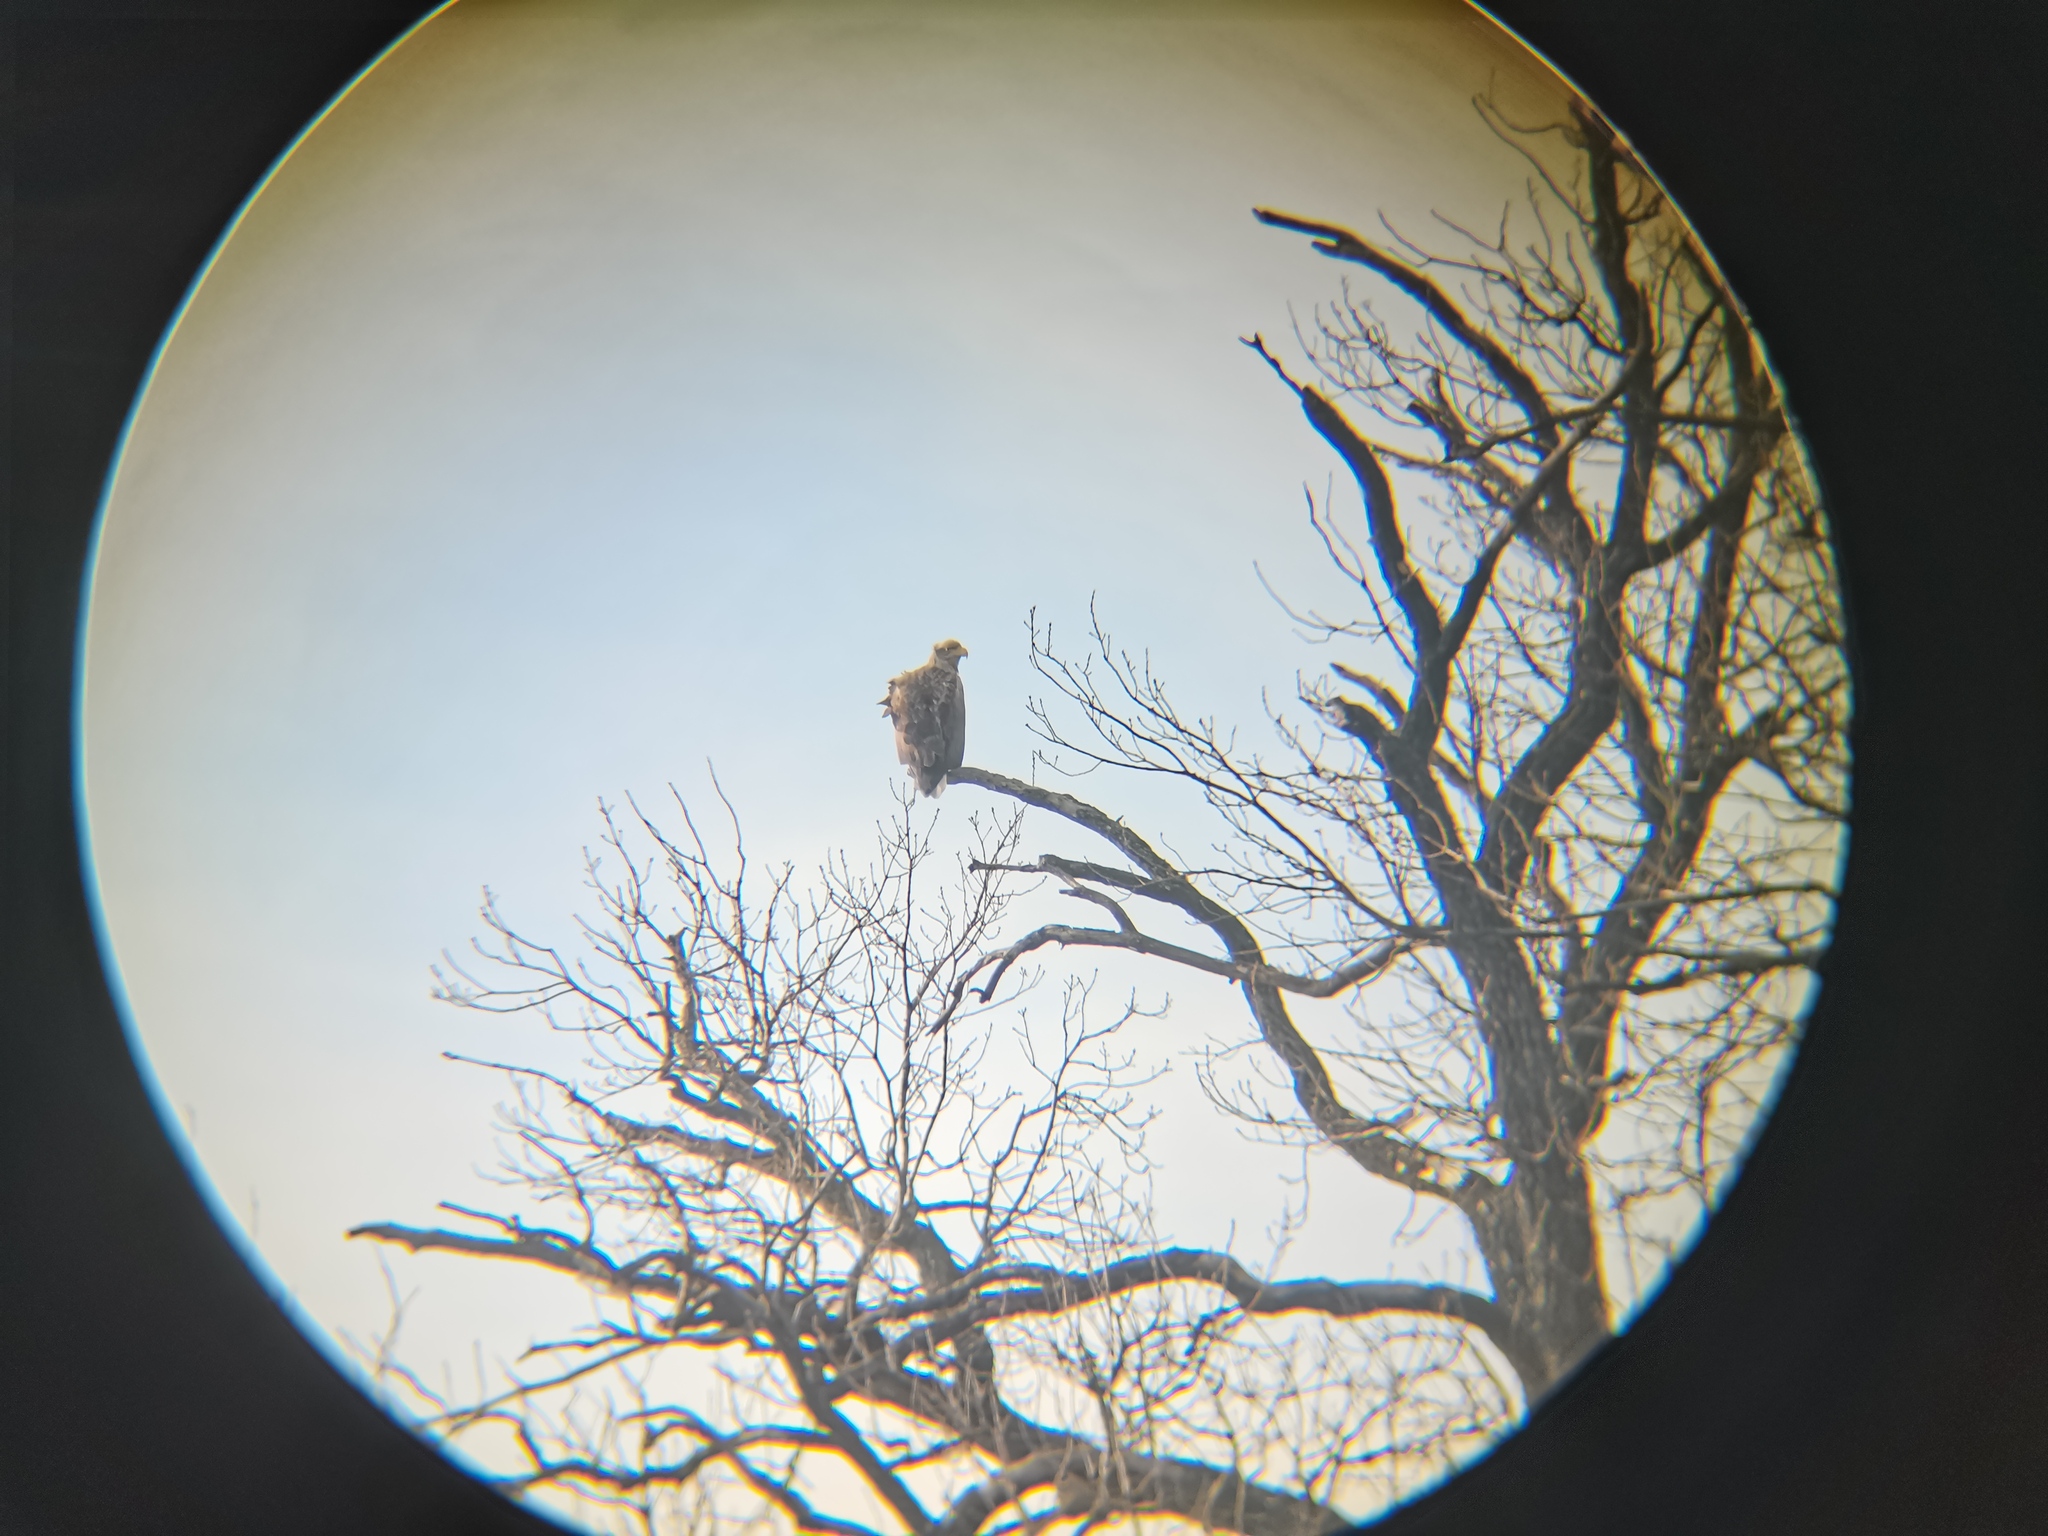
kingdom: Animalia
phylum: Chordata
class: Aves
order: Accipitriformes
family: Accipitridae
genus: Haliaeetus
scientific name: Haliaeetus albicilla
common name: White-tailed eagle
